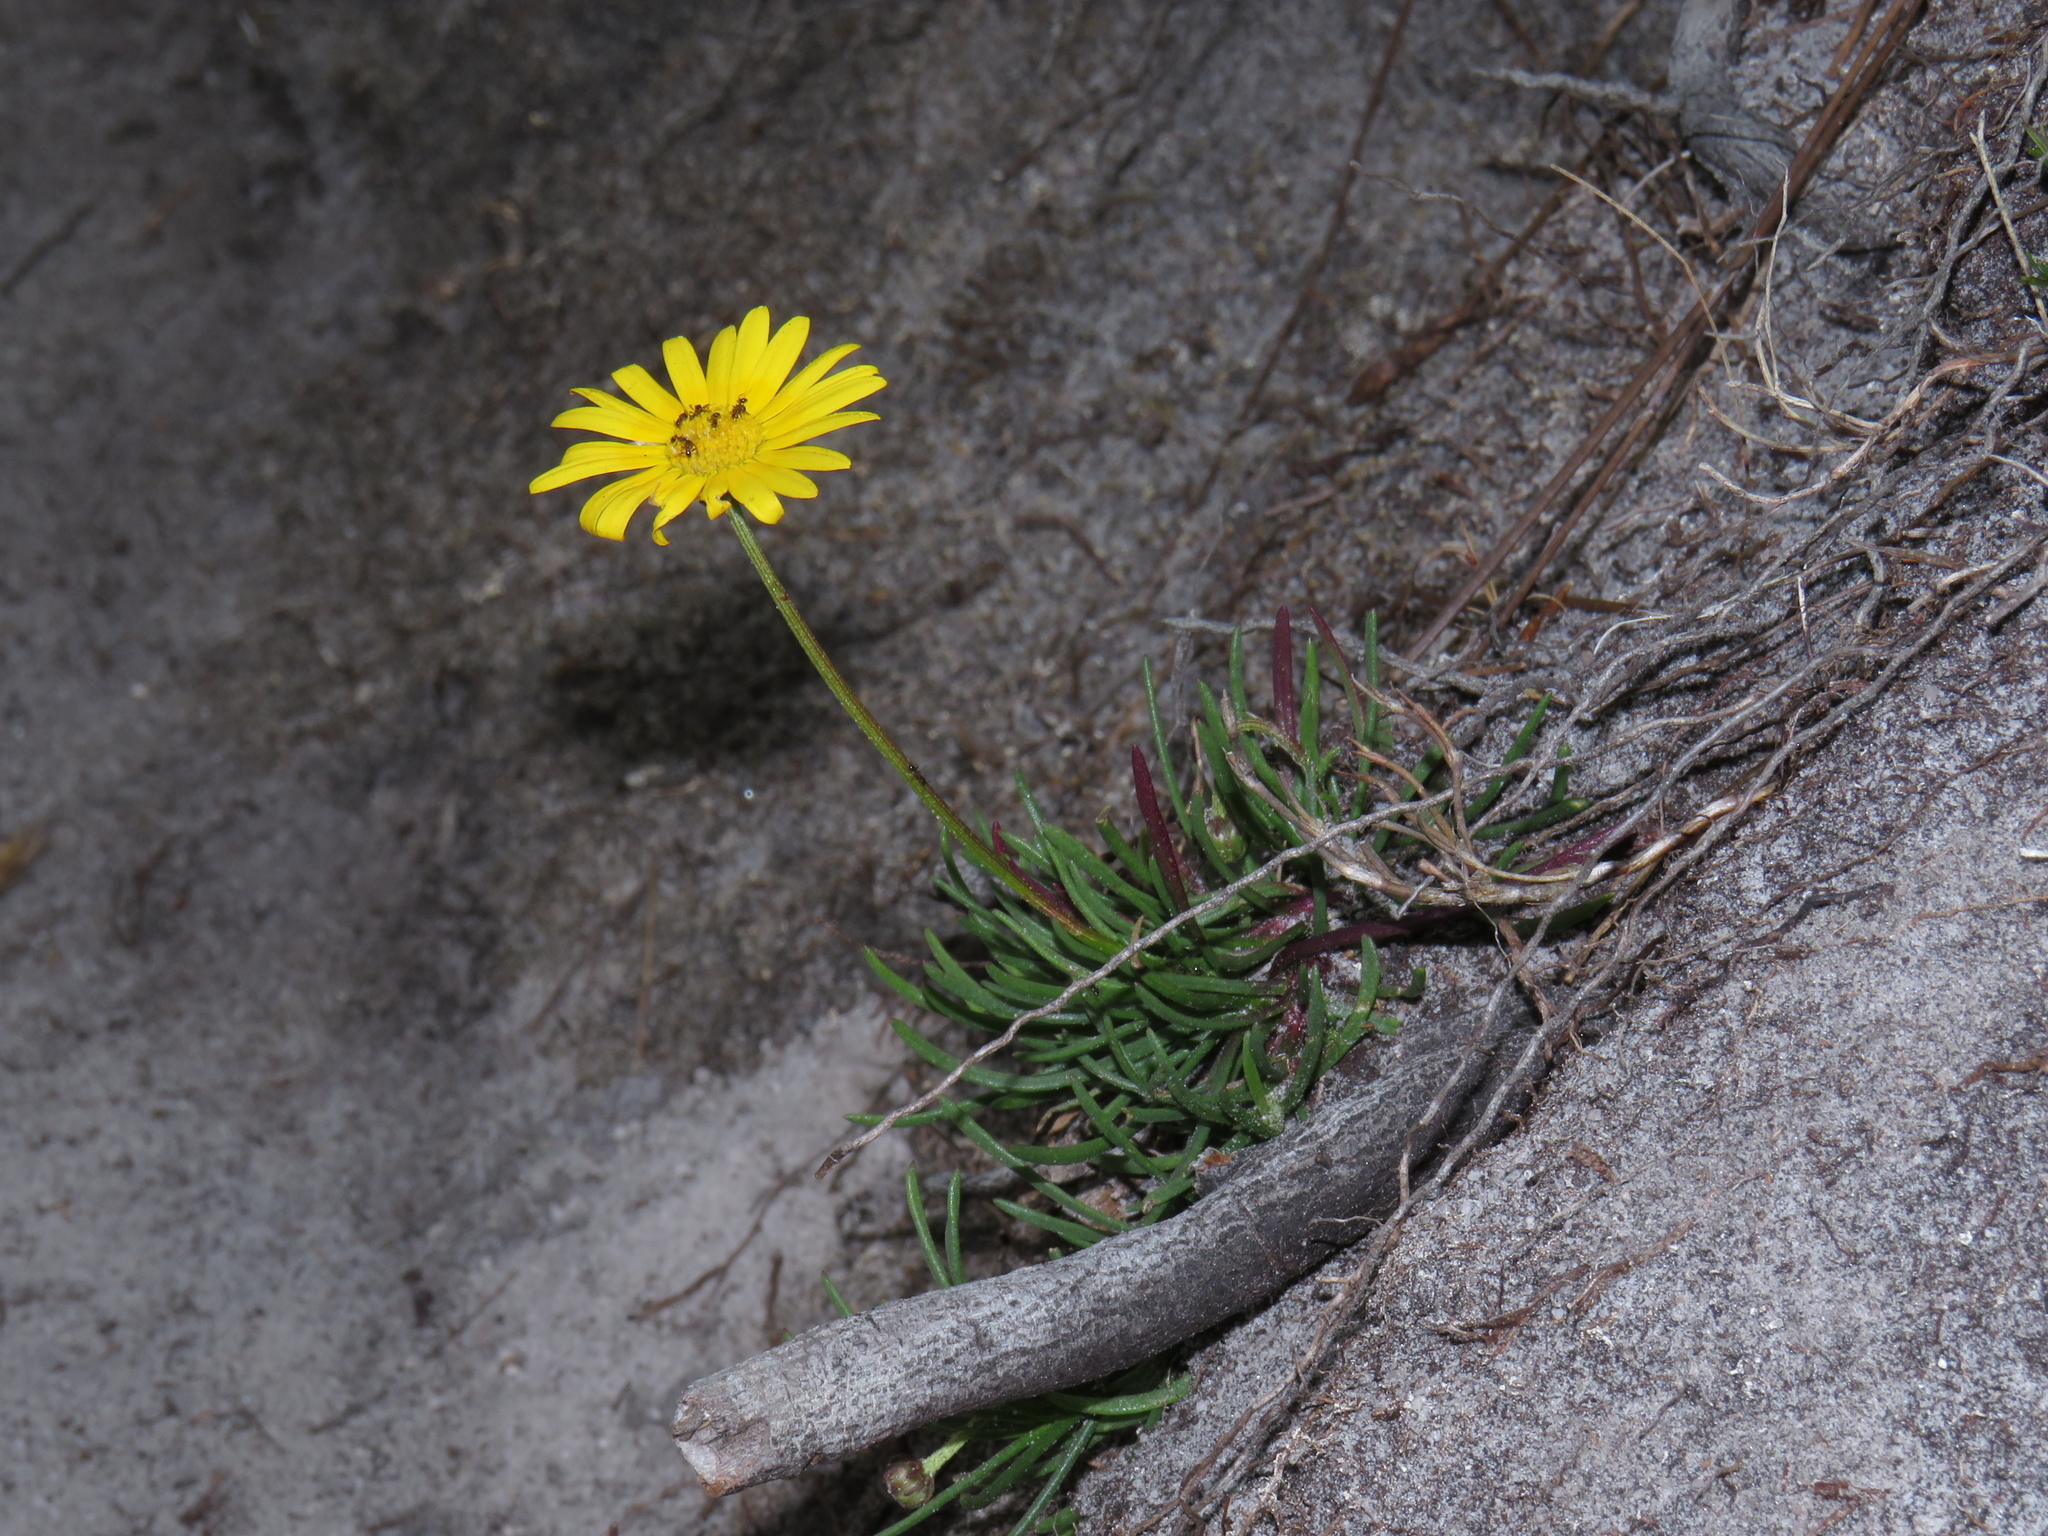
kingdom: Plantae
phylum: Tracheophyta
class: Magnoliopsida
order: Asterales
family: Asteraceae
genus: Ursinia
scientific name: Ursinia tenuifolia
